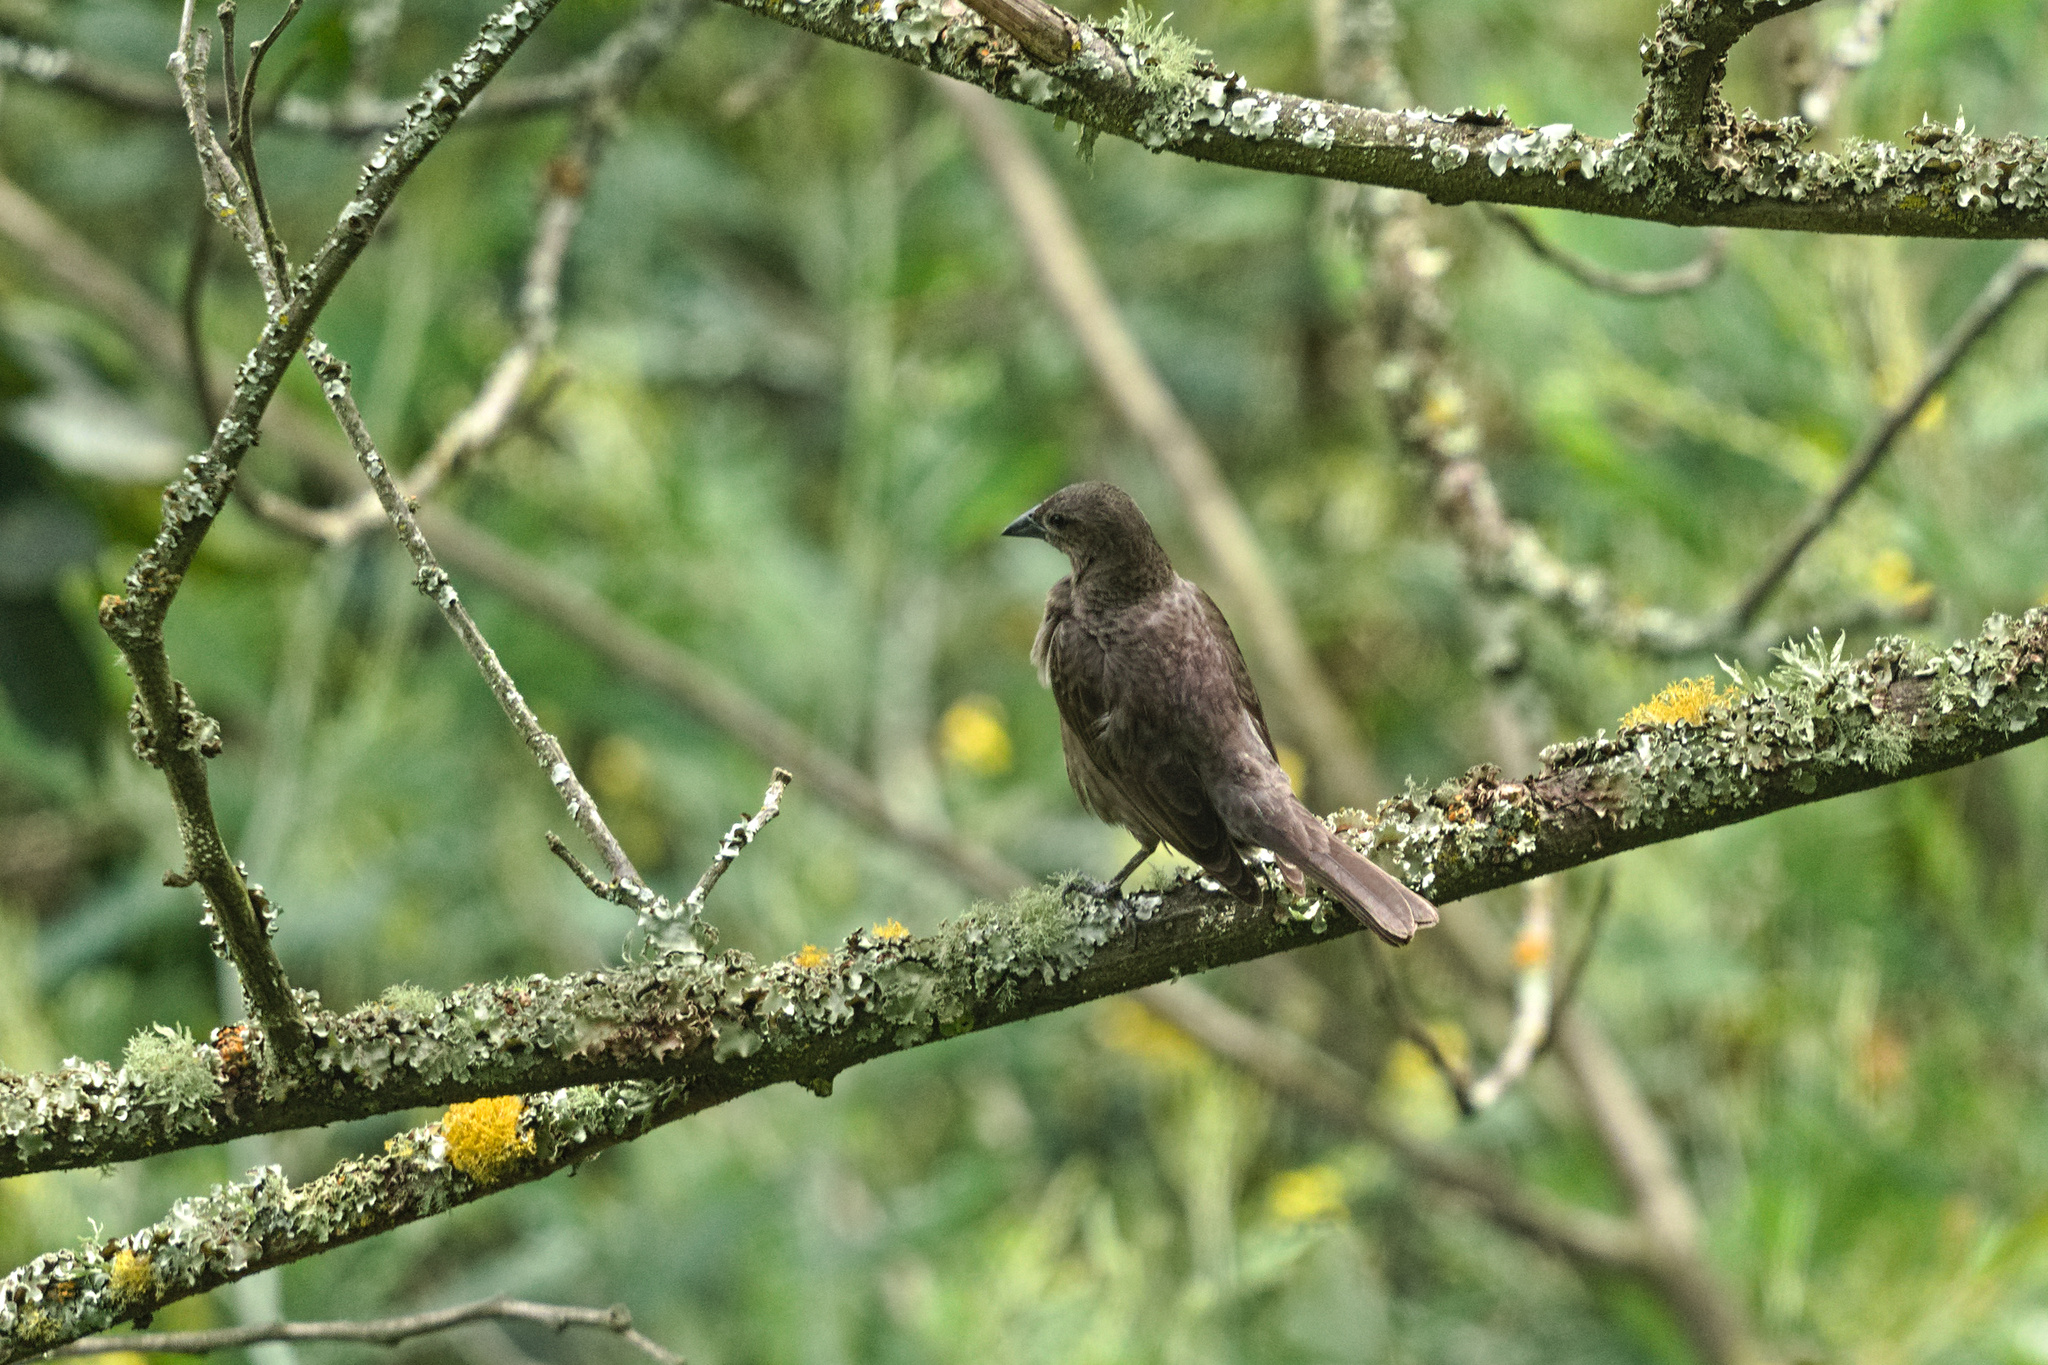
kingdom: Animalia
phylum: Chordata
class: Aves
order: Passeriformes
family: Icteridae
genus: Molothrus
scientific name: Molothrus bonariensis
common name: Shiny cowbird
